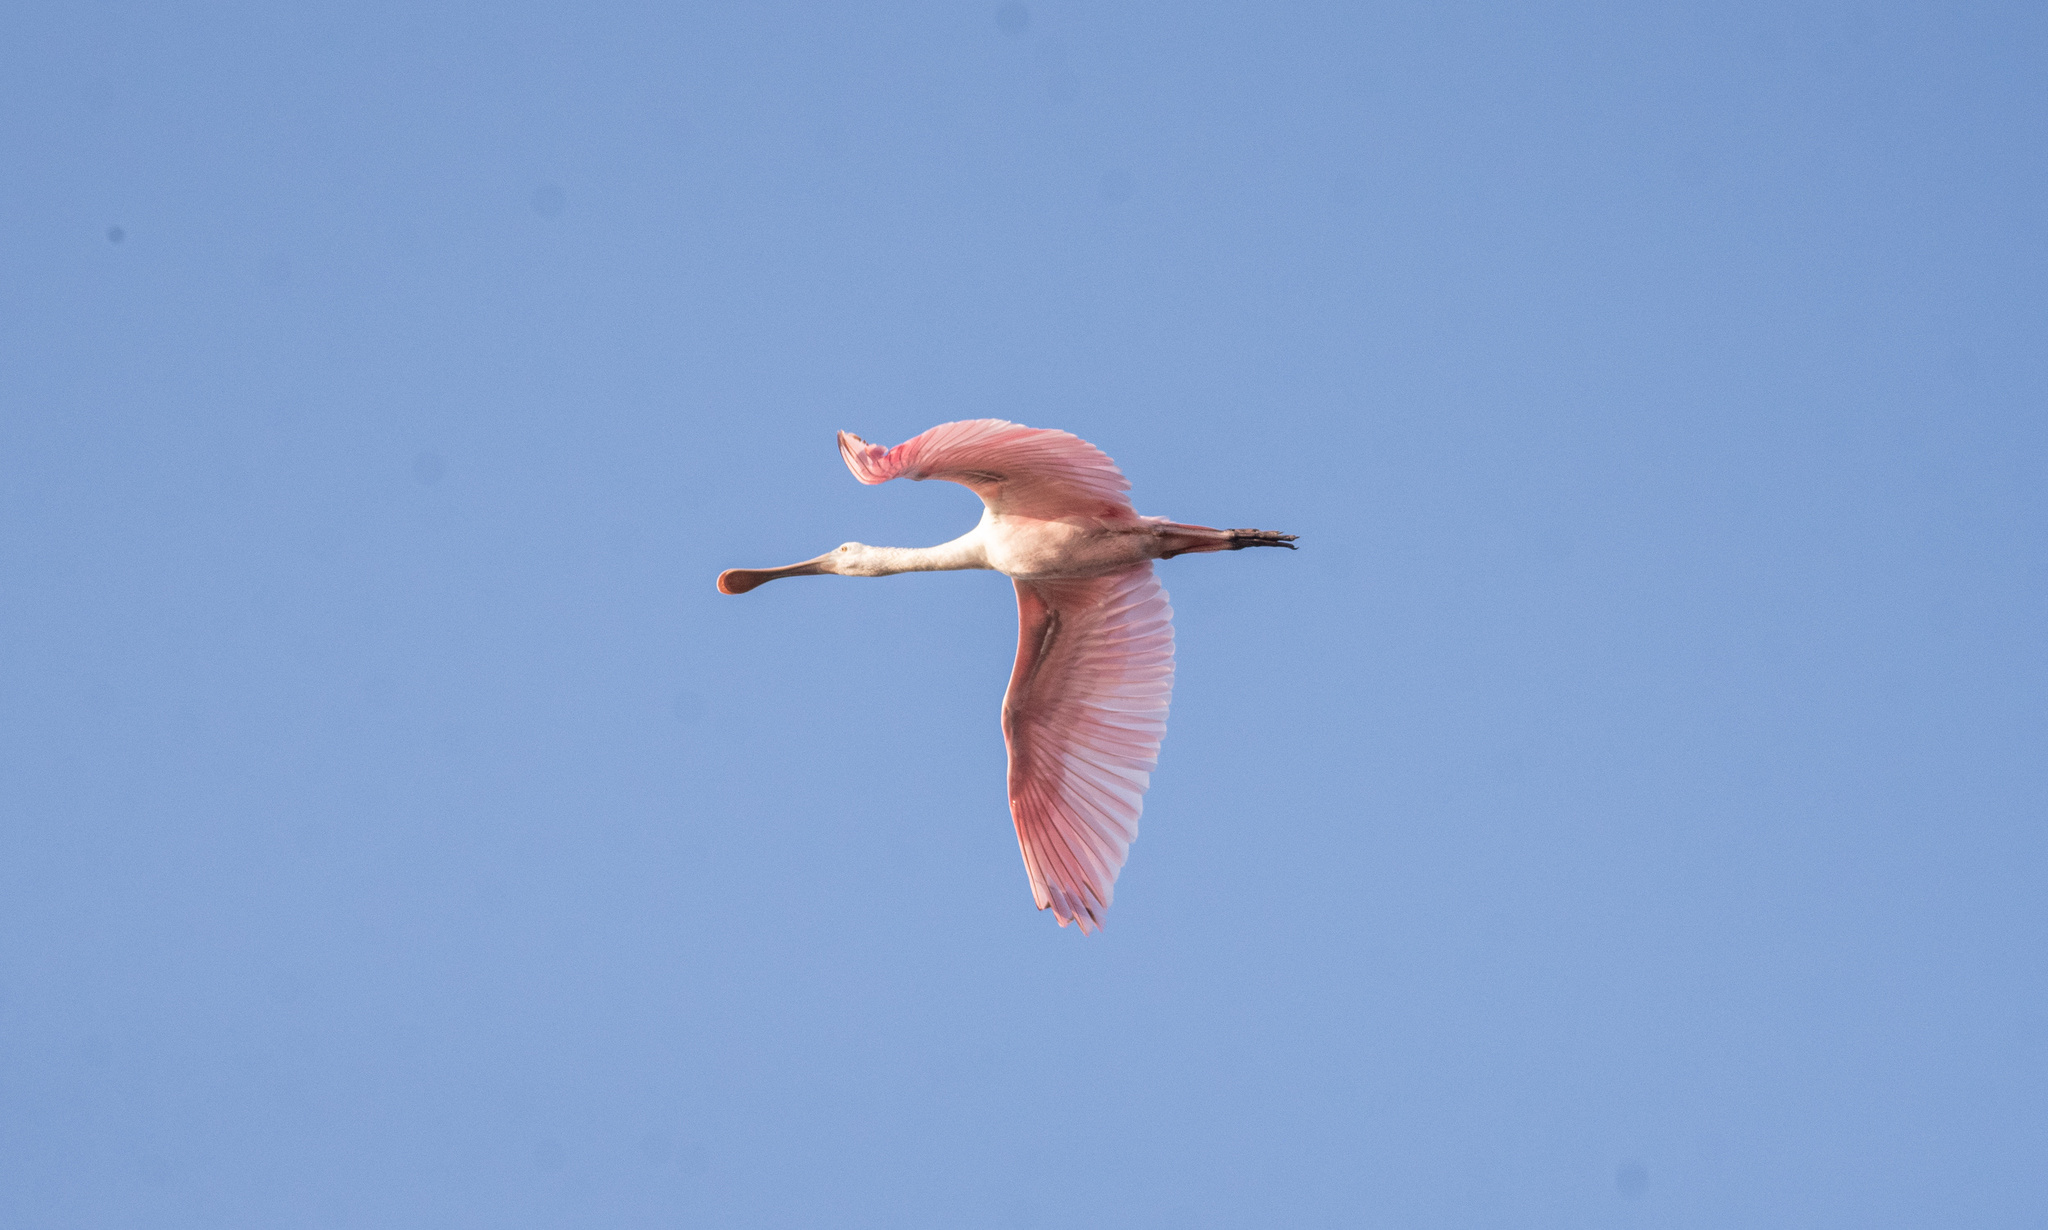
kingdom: Animalia
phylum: Chordata
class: Aves
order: Pelecaniformes
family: Threskiornithidae
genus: Platalea
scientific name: Platalea ajaja
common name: Roseate spoonbill
